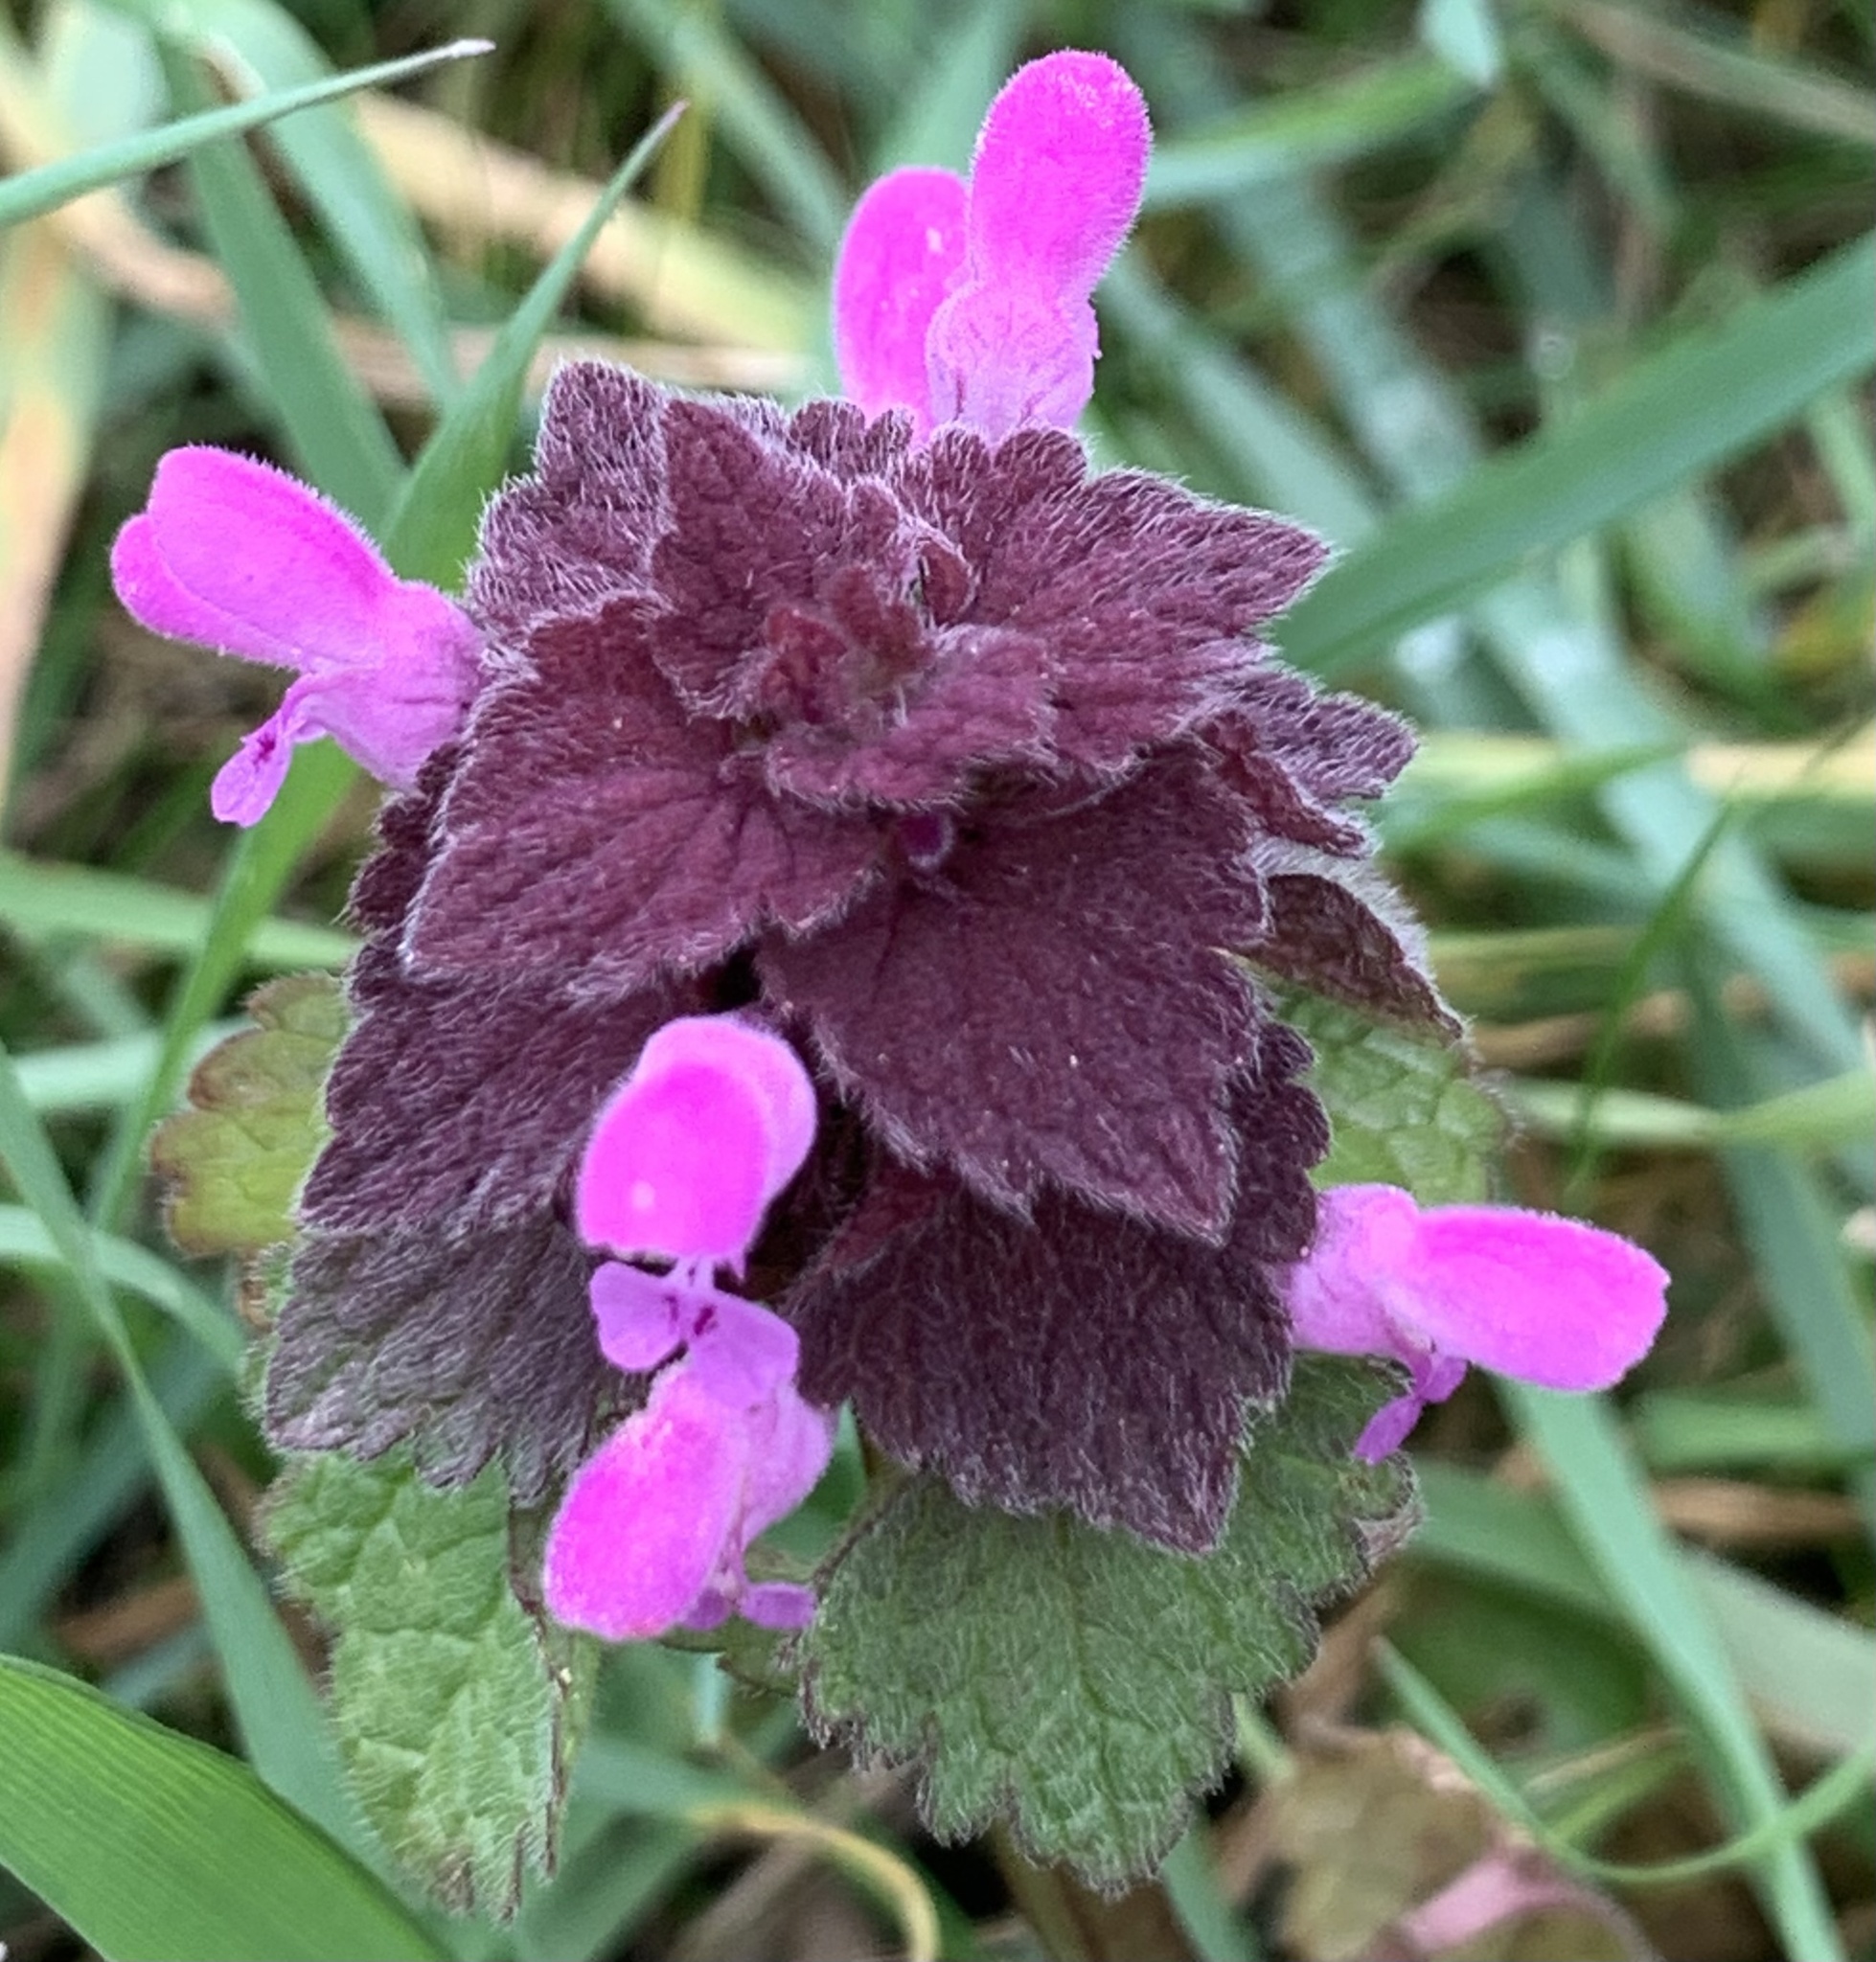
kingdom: Plantae
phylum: Tracheophyta
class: Magnoliopsida
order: Lamiales
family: Lamiaceae
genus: Lamium
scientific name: Lamium purpureum
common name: Red dead-nettle
